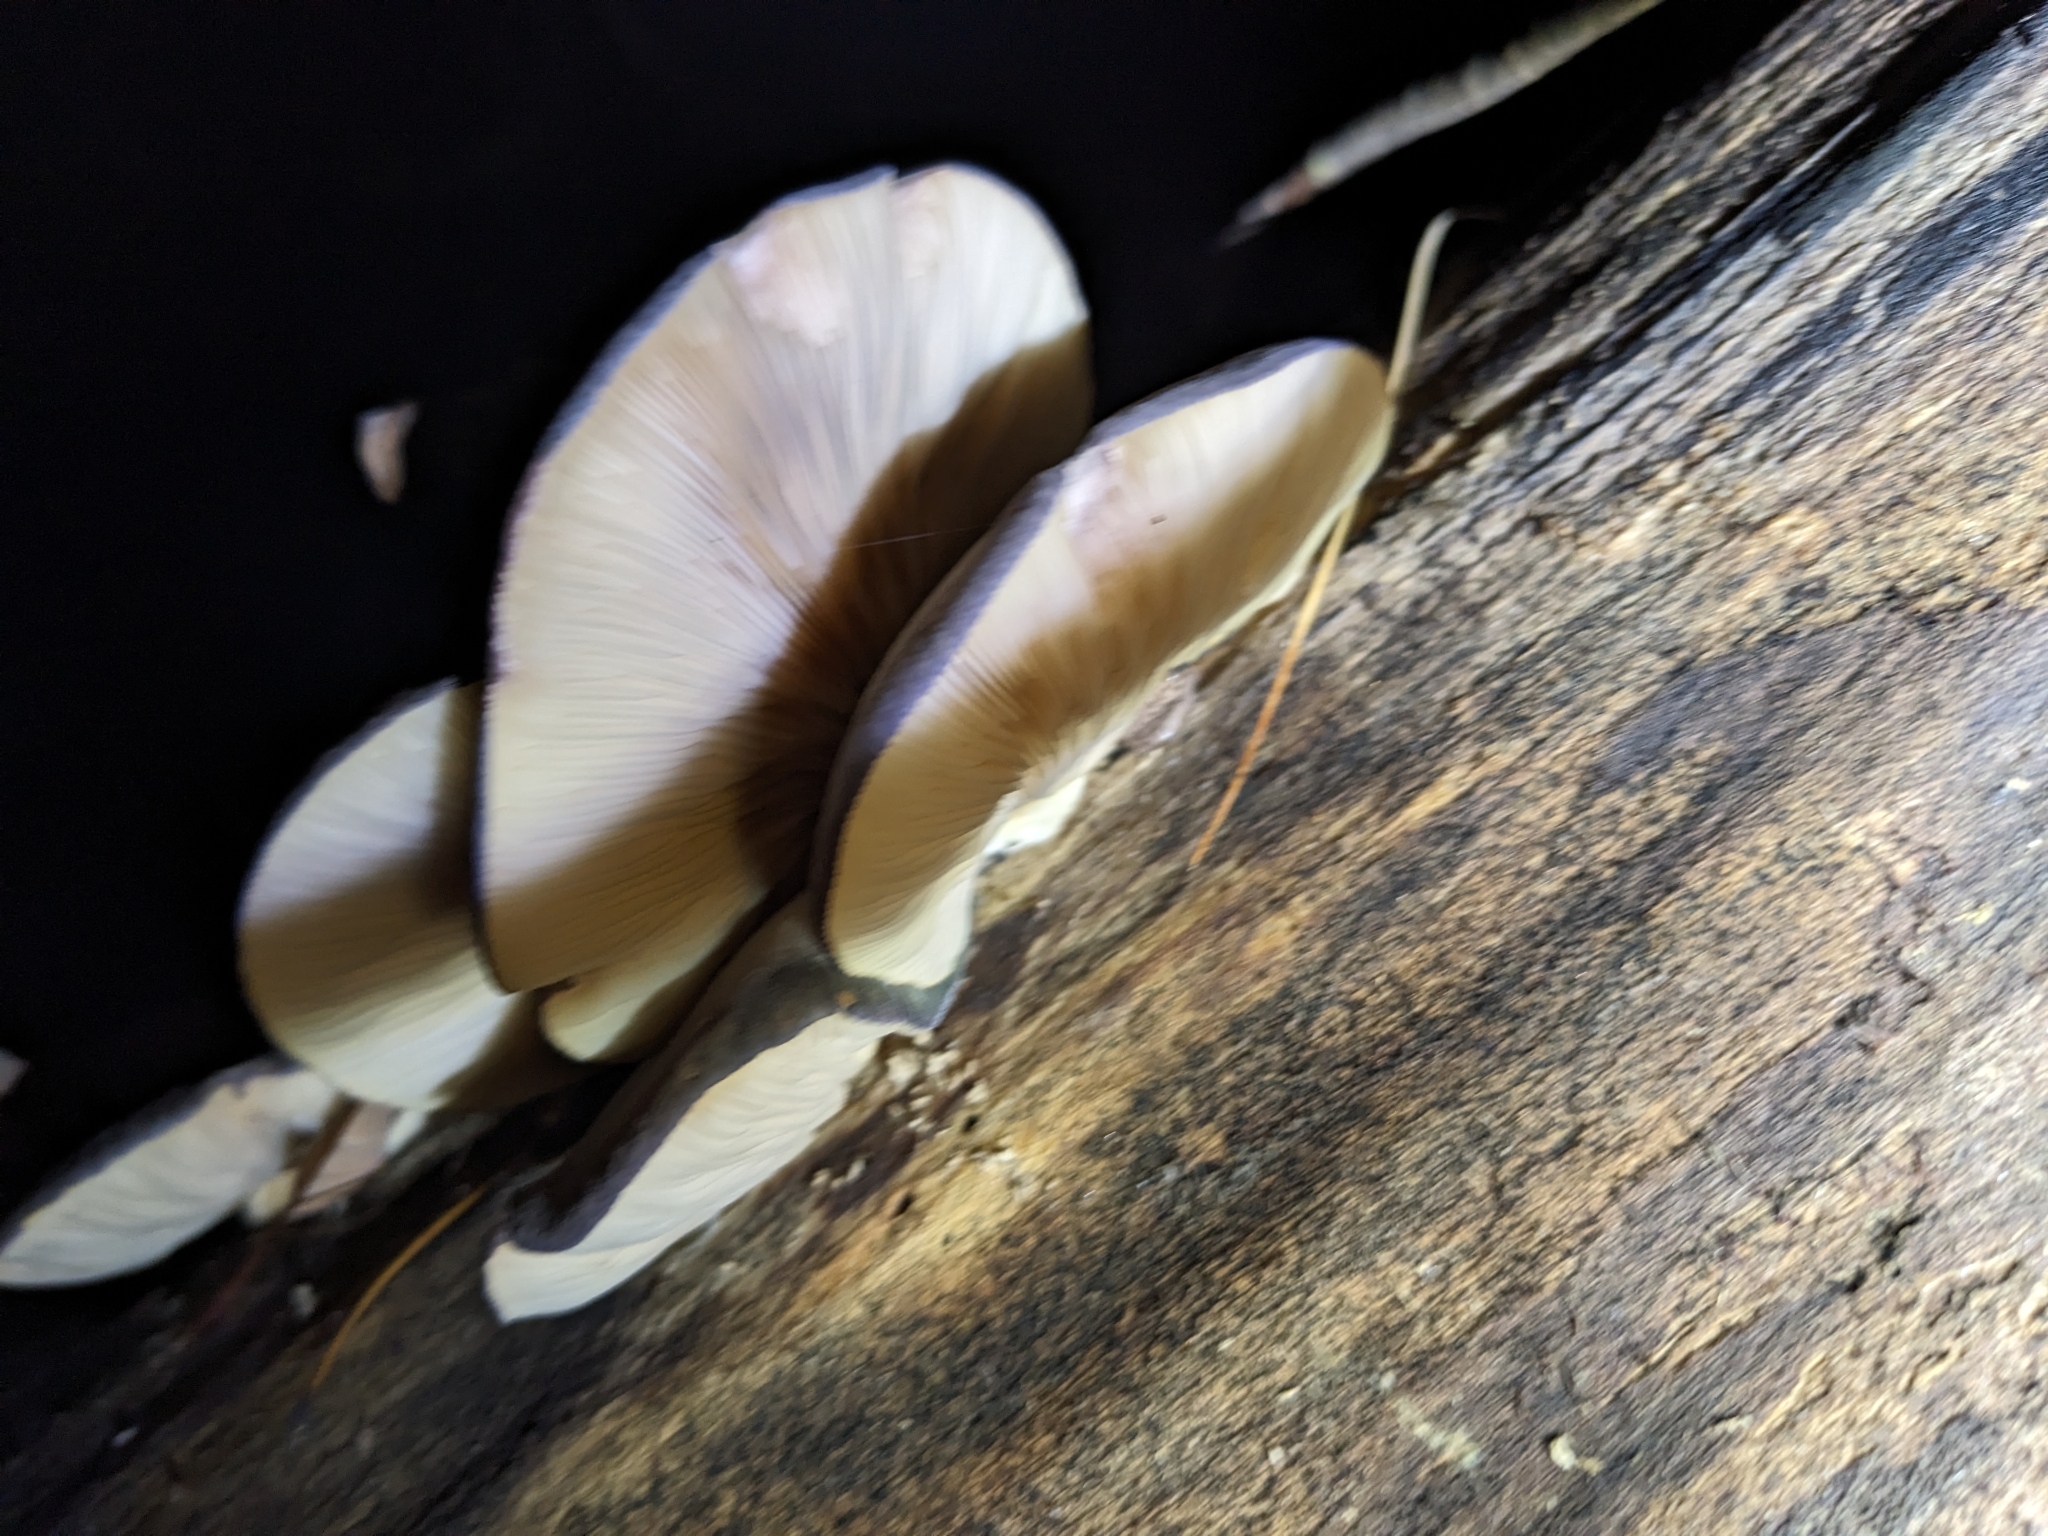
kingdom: Fungi
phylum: Basidiomycota
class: Agaricomycetes
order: Agaricales
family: Sarcomyxaceae
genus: Sarcomyxa
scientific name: Sarcomyxa serotina
